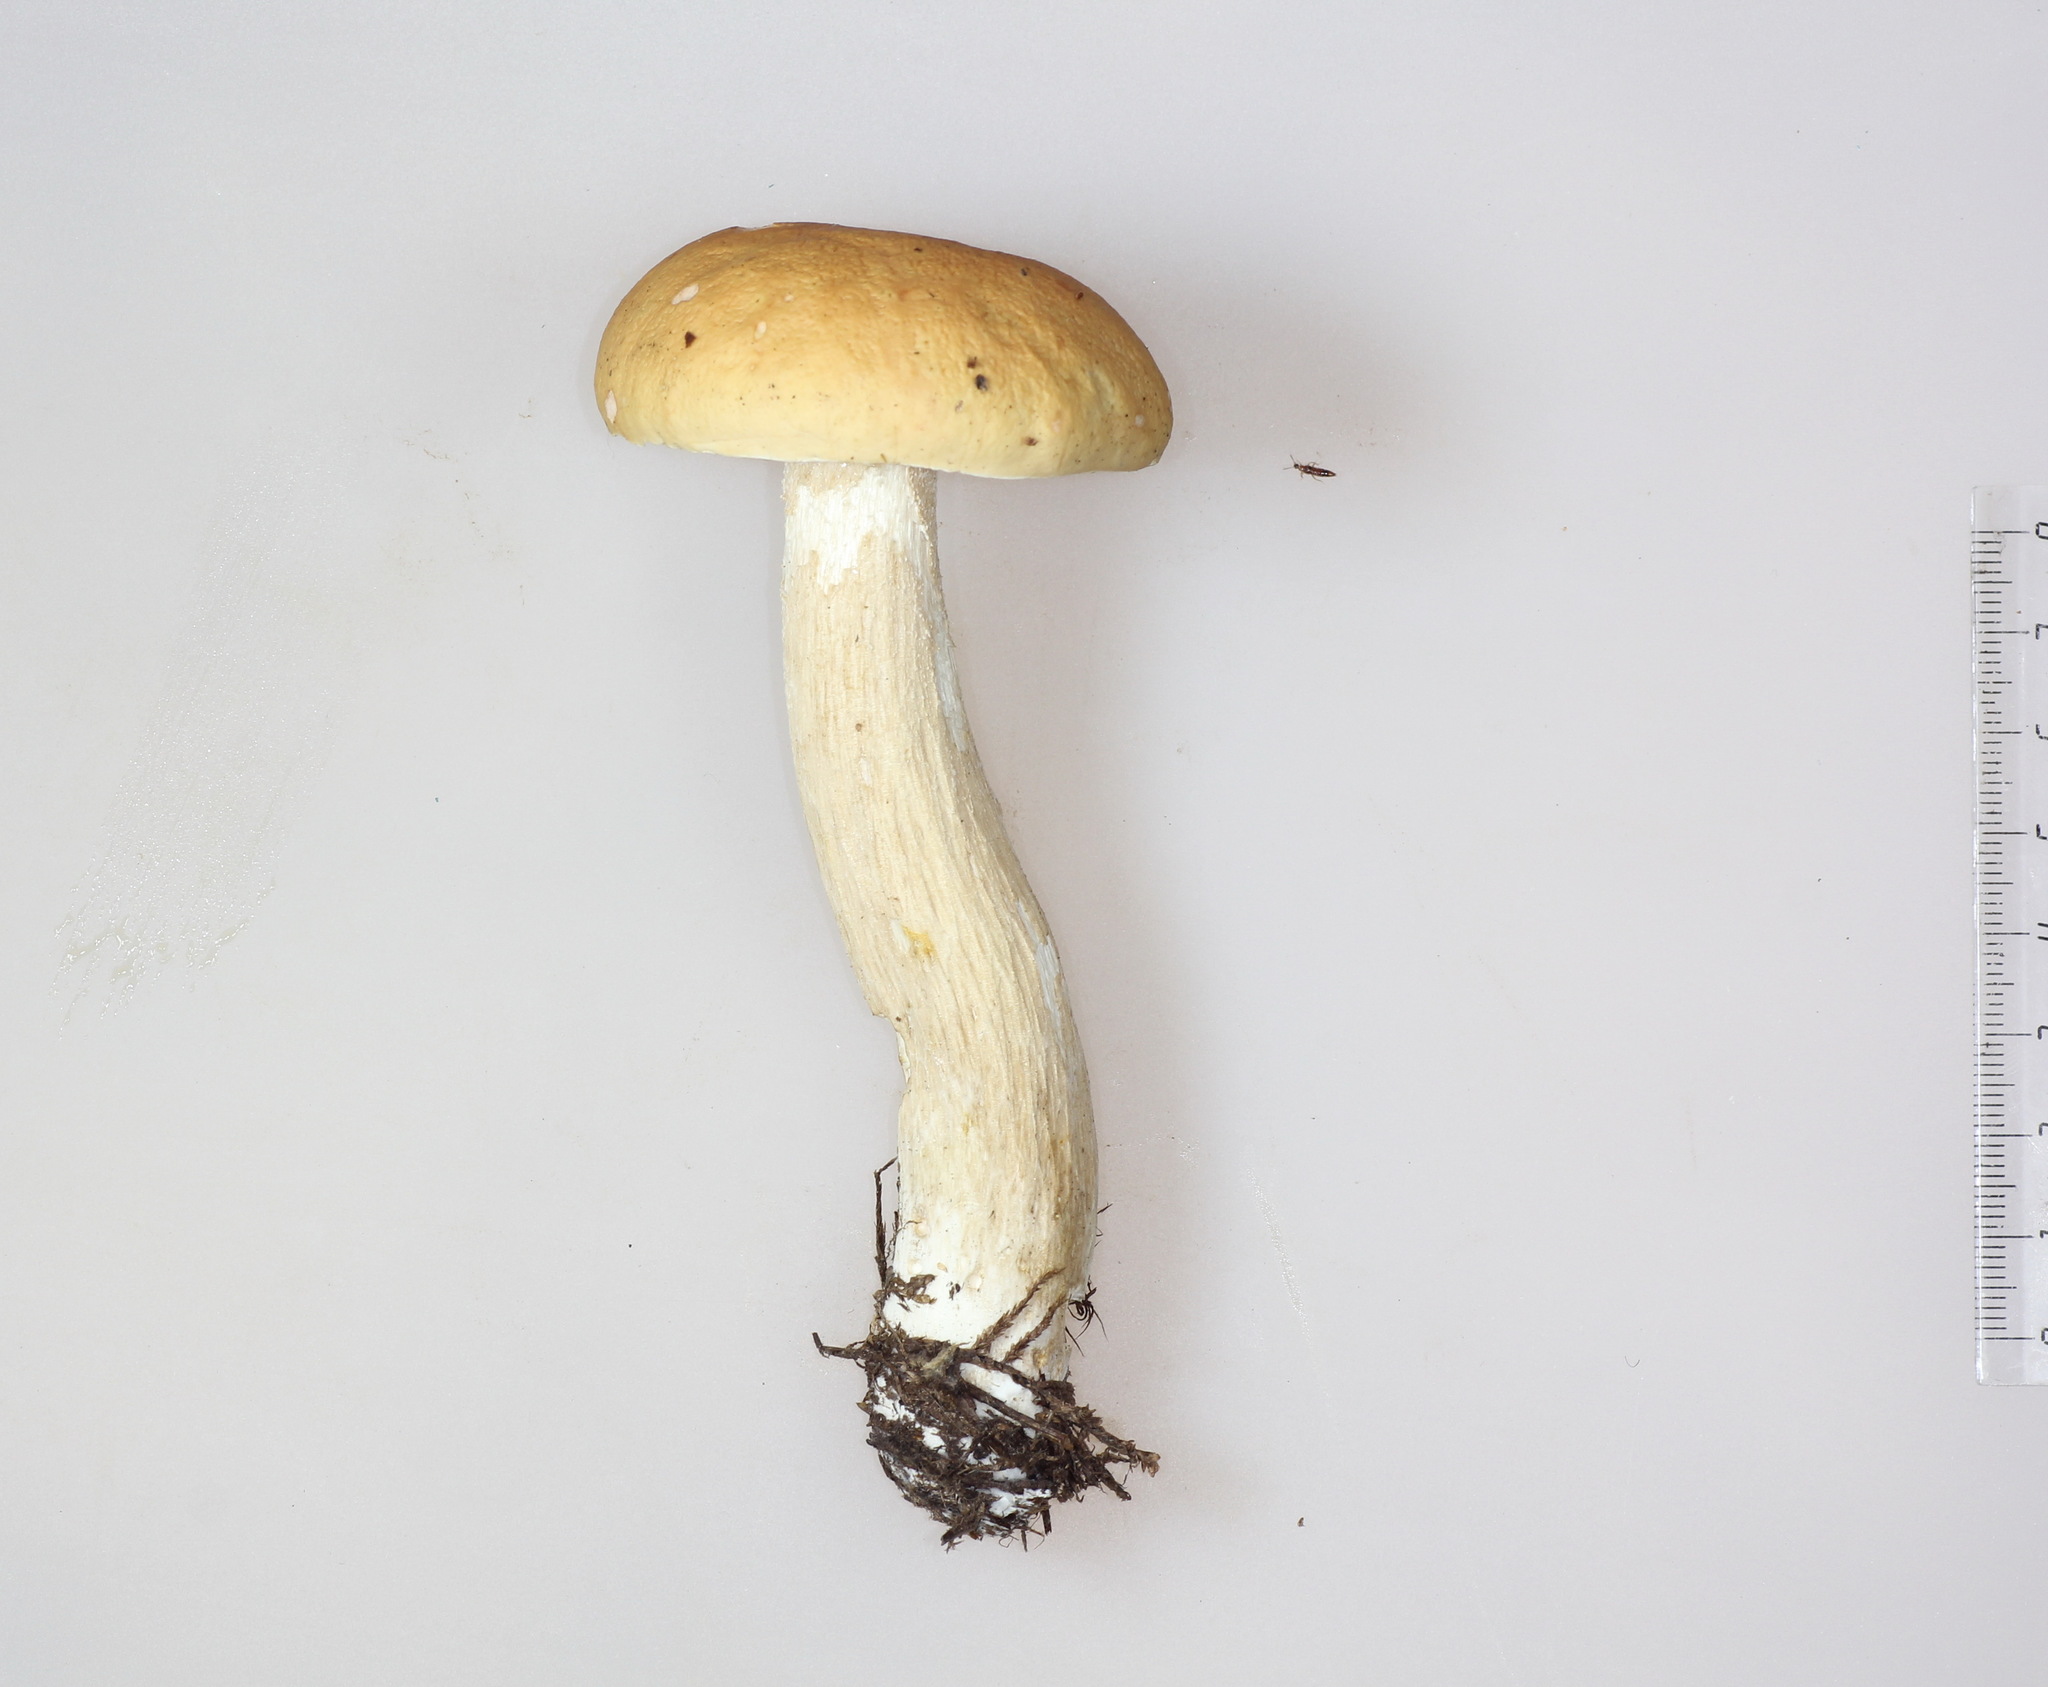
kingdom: Fungi
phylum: Basidiomycota
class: Agaricomycetes
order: Boletales
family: Boletaceae
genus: Boletus
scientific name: Boletus edulis
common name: Cep
